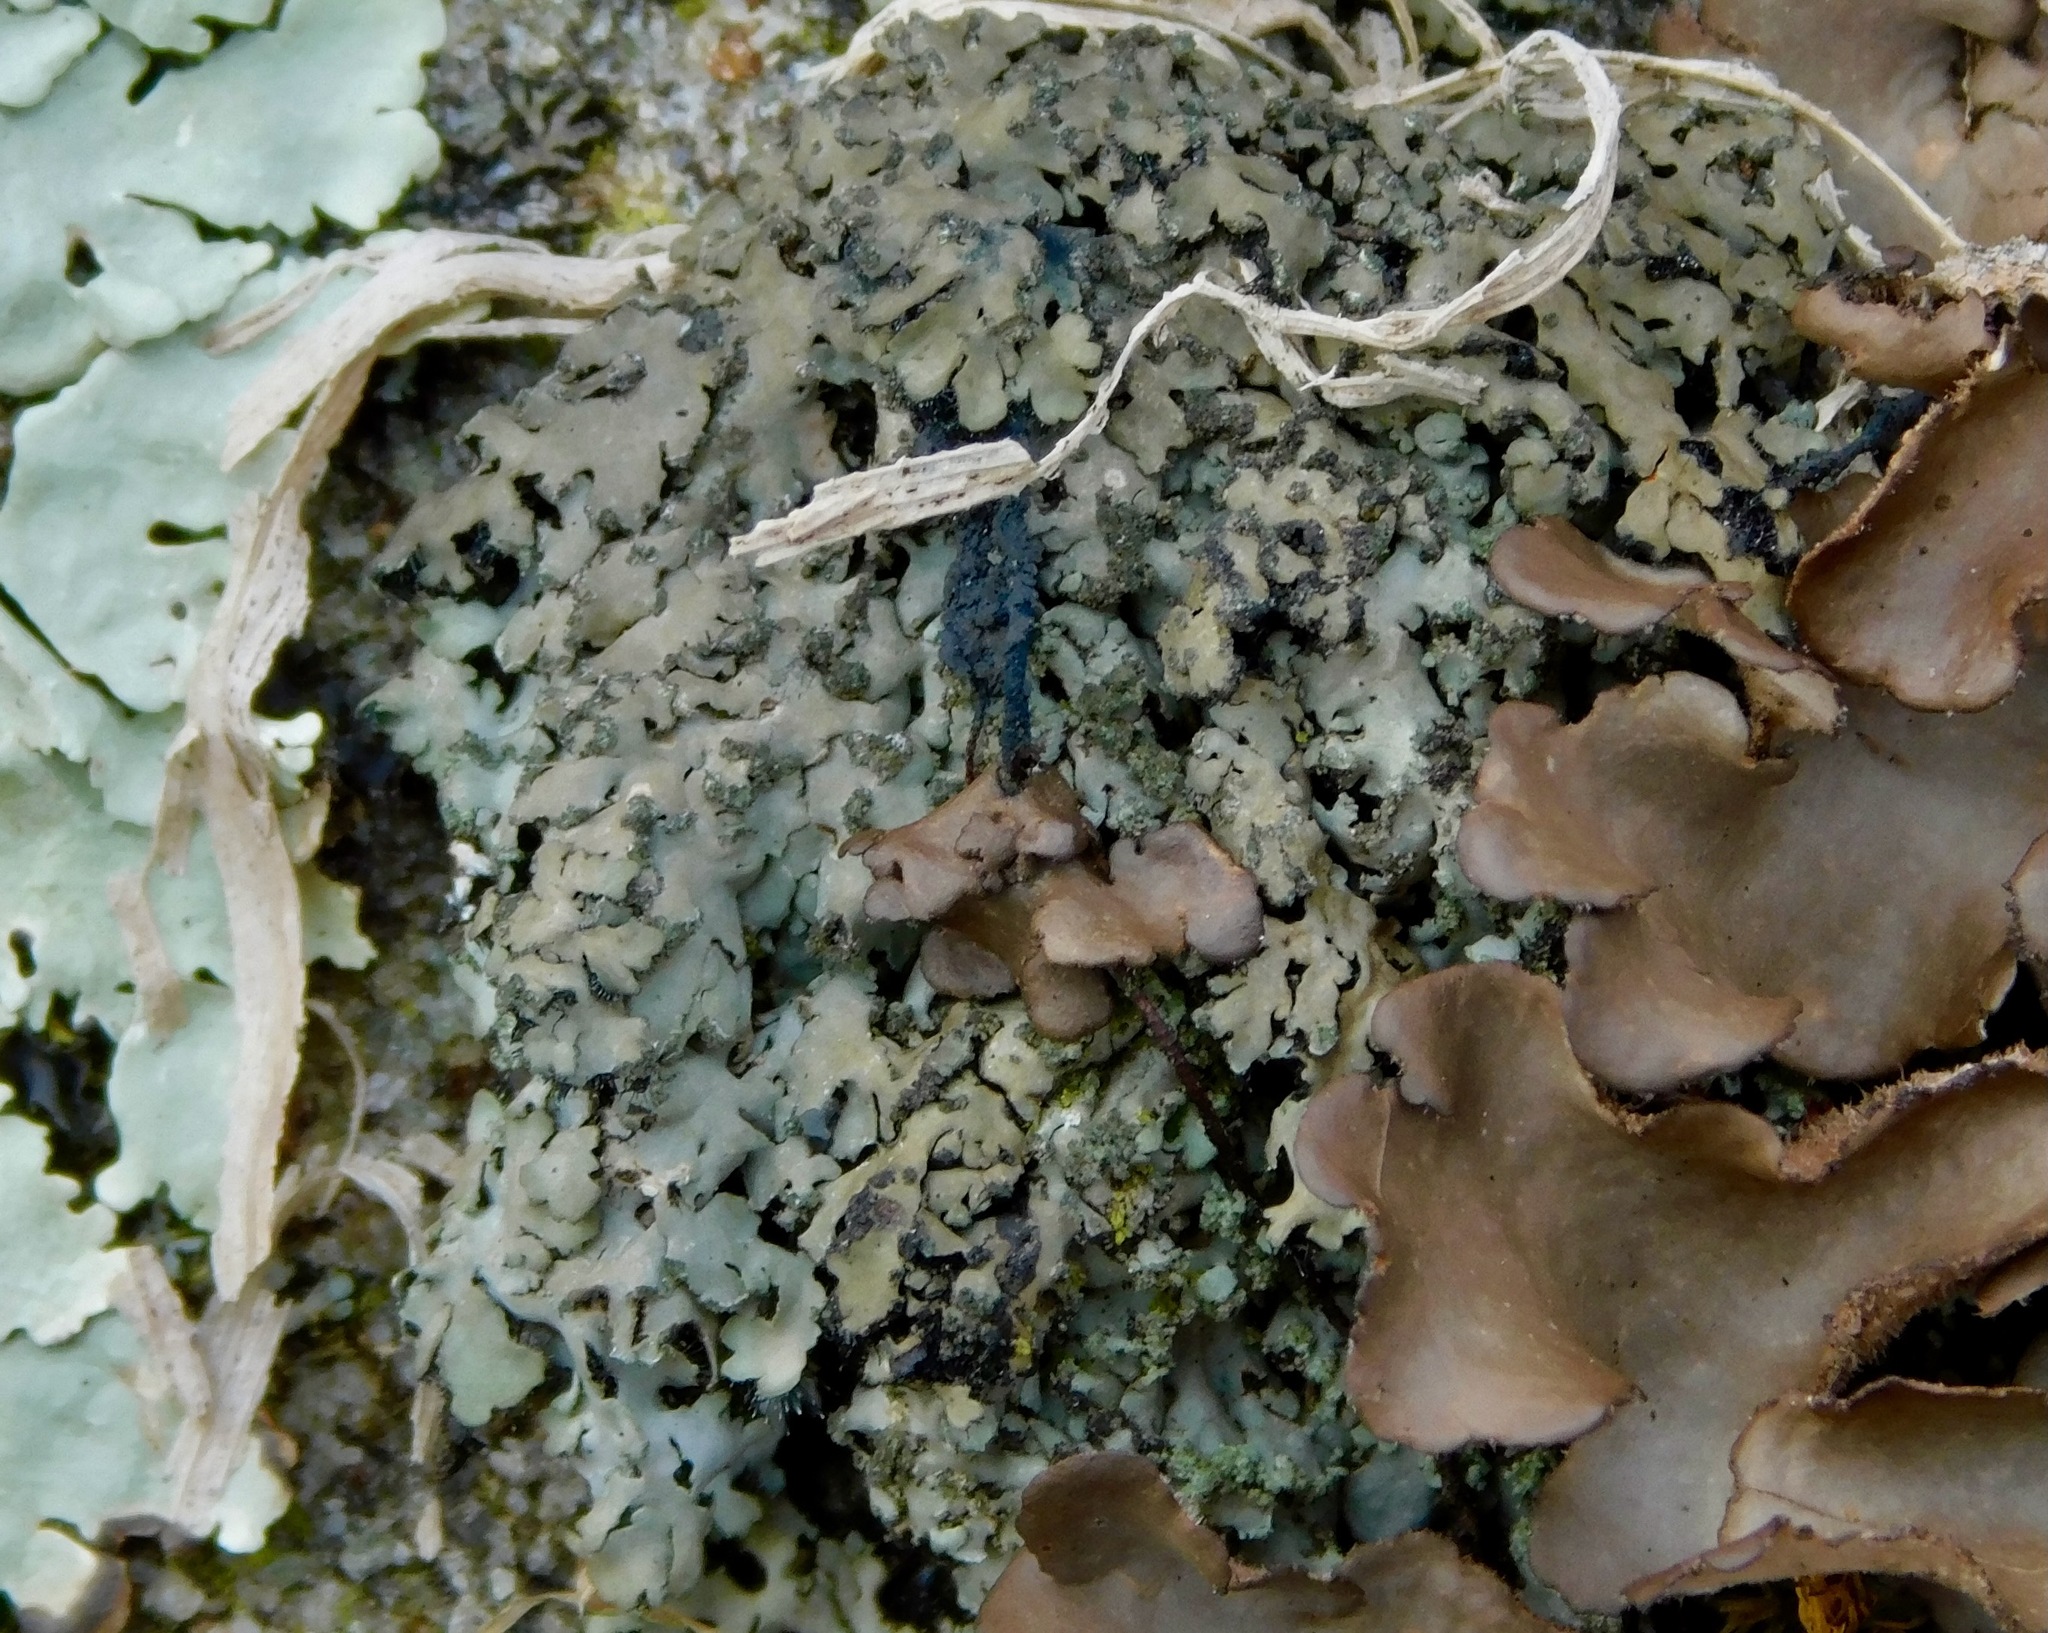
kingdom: Fungi
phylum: Ascomycota
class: Lecanoromycetes
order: Caliciales
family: Physciaceae
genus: Phaeophyscia
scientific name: Phaeophyscia adiastola
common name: Powder-tipped shadow lichen
